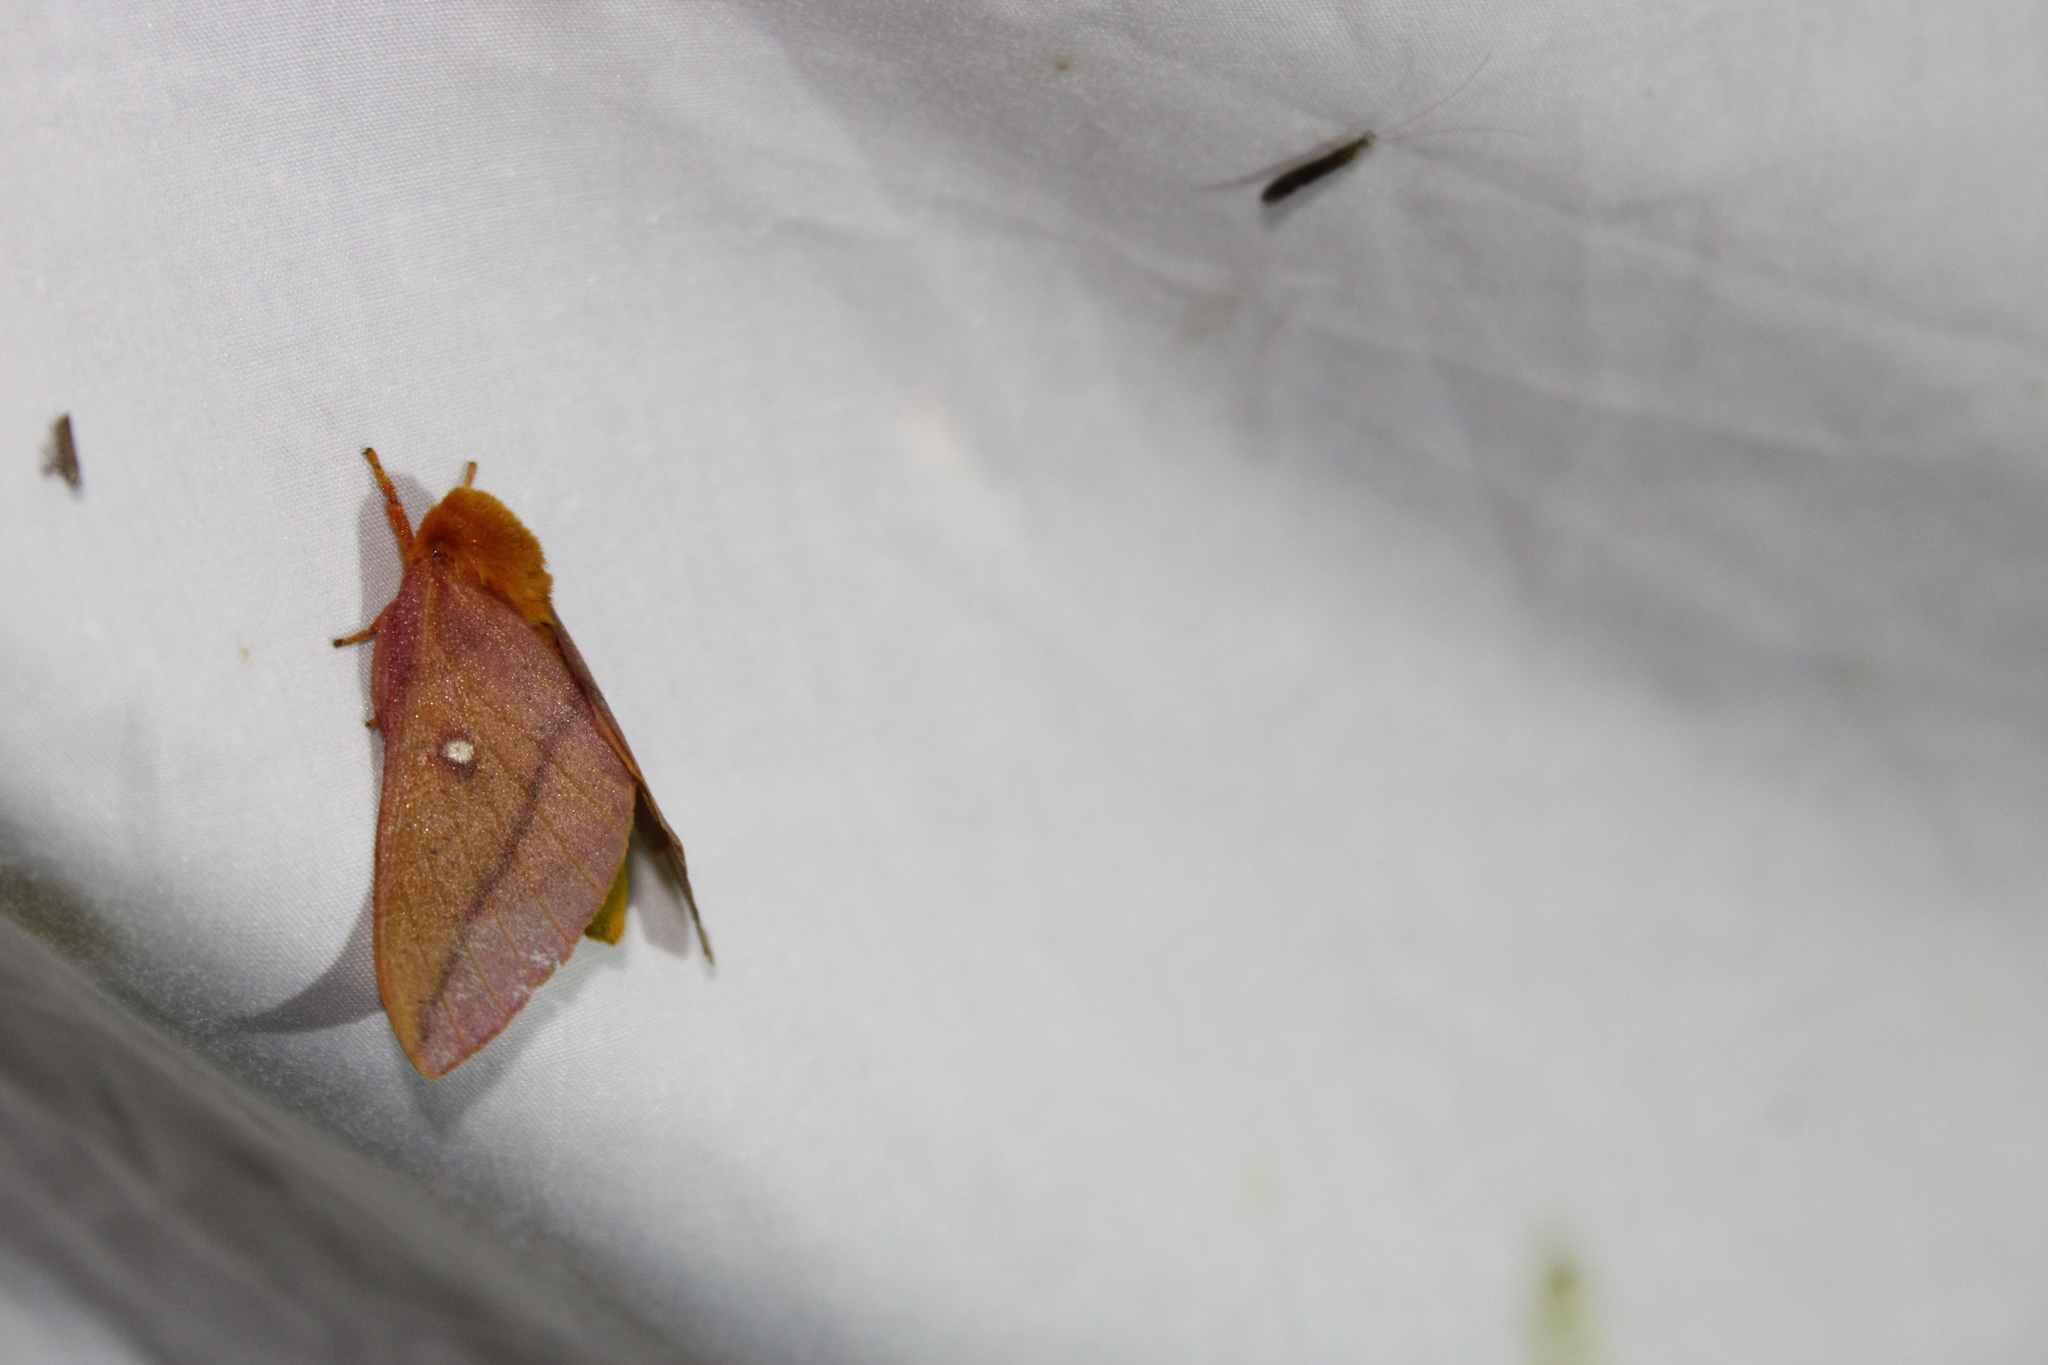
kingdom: Animalia
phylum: Arthropoda
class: Insecta
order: Lepidoptera
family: Saturniidae
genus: Anisota
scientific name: Anisota senatoria
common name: Orange-striped oakworm moth
